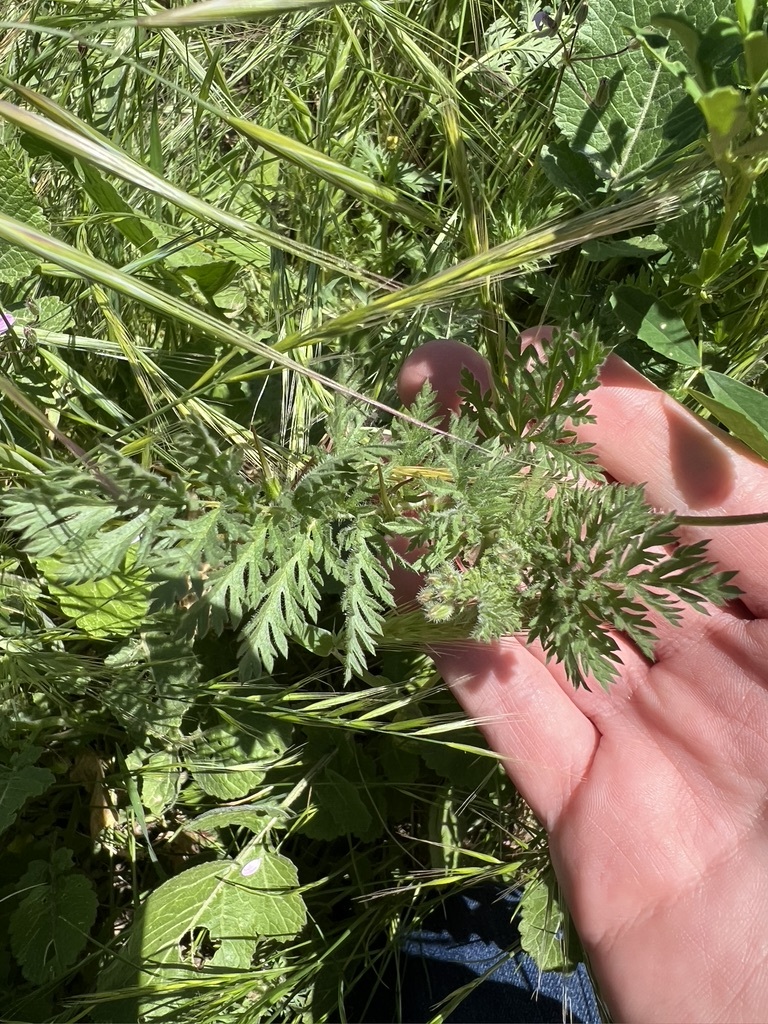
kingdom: Plantae
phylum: Tracheophyta
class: Magnoliopsida
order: Geraniales
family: Geraniaceae
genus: Erodium
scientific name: Erodium cicutarium
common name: Common stork's-bill
